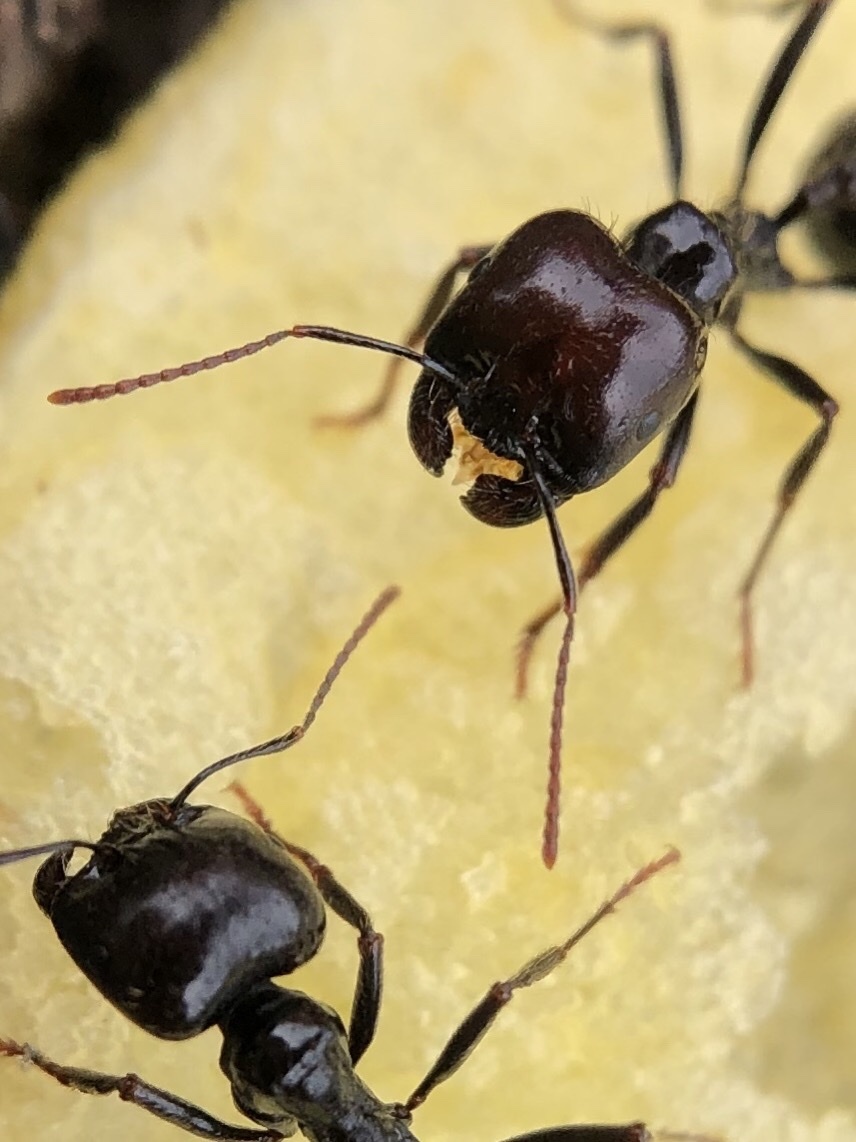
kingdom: Animalia
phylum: Arthropoda
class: Insecta
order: Hymenoptera
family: Formicidae
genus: Messor
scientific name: Messor barbarus
